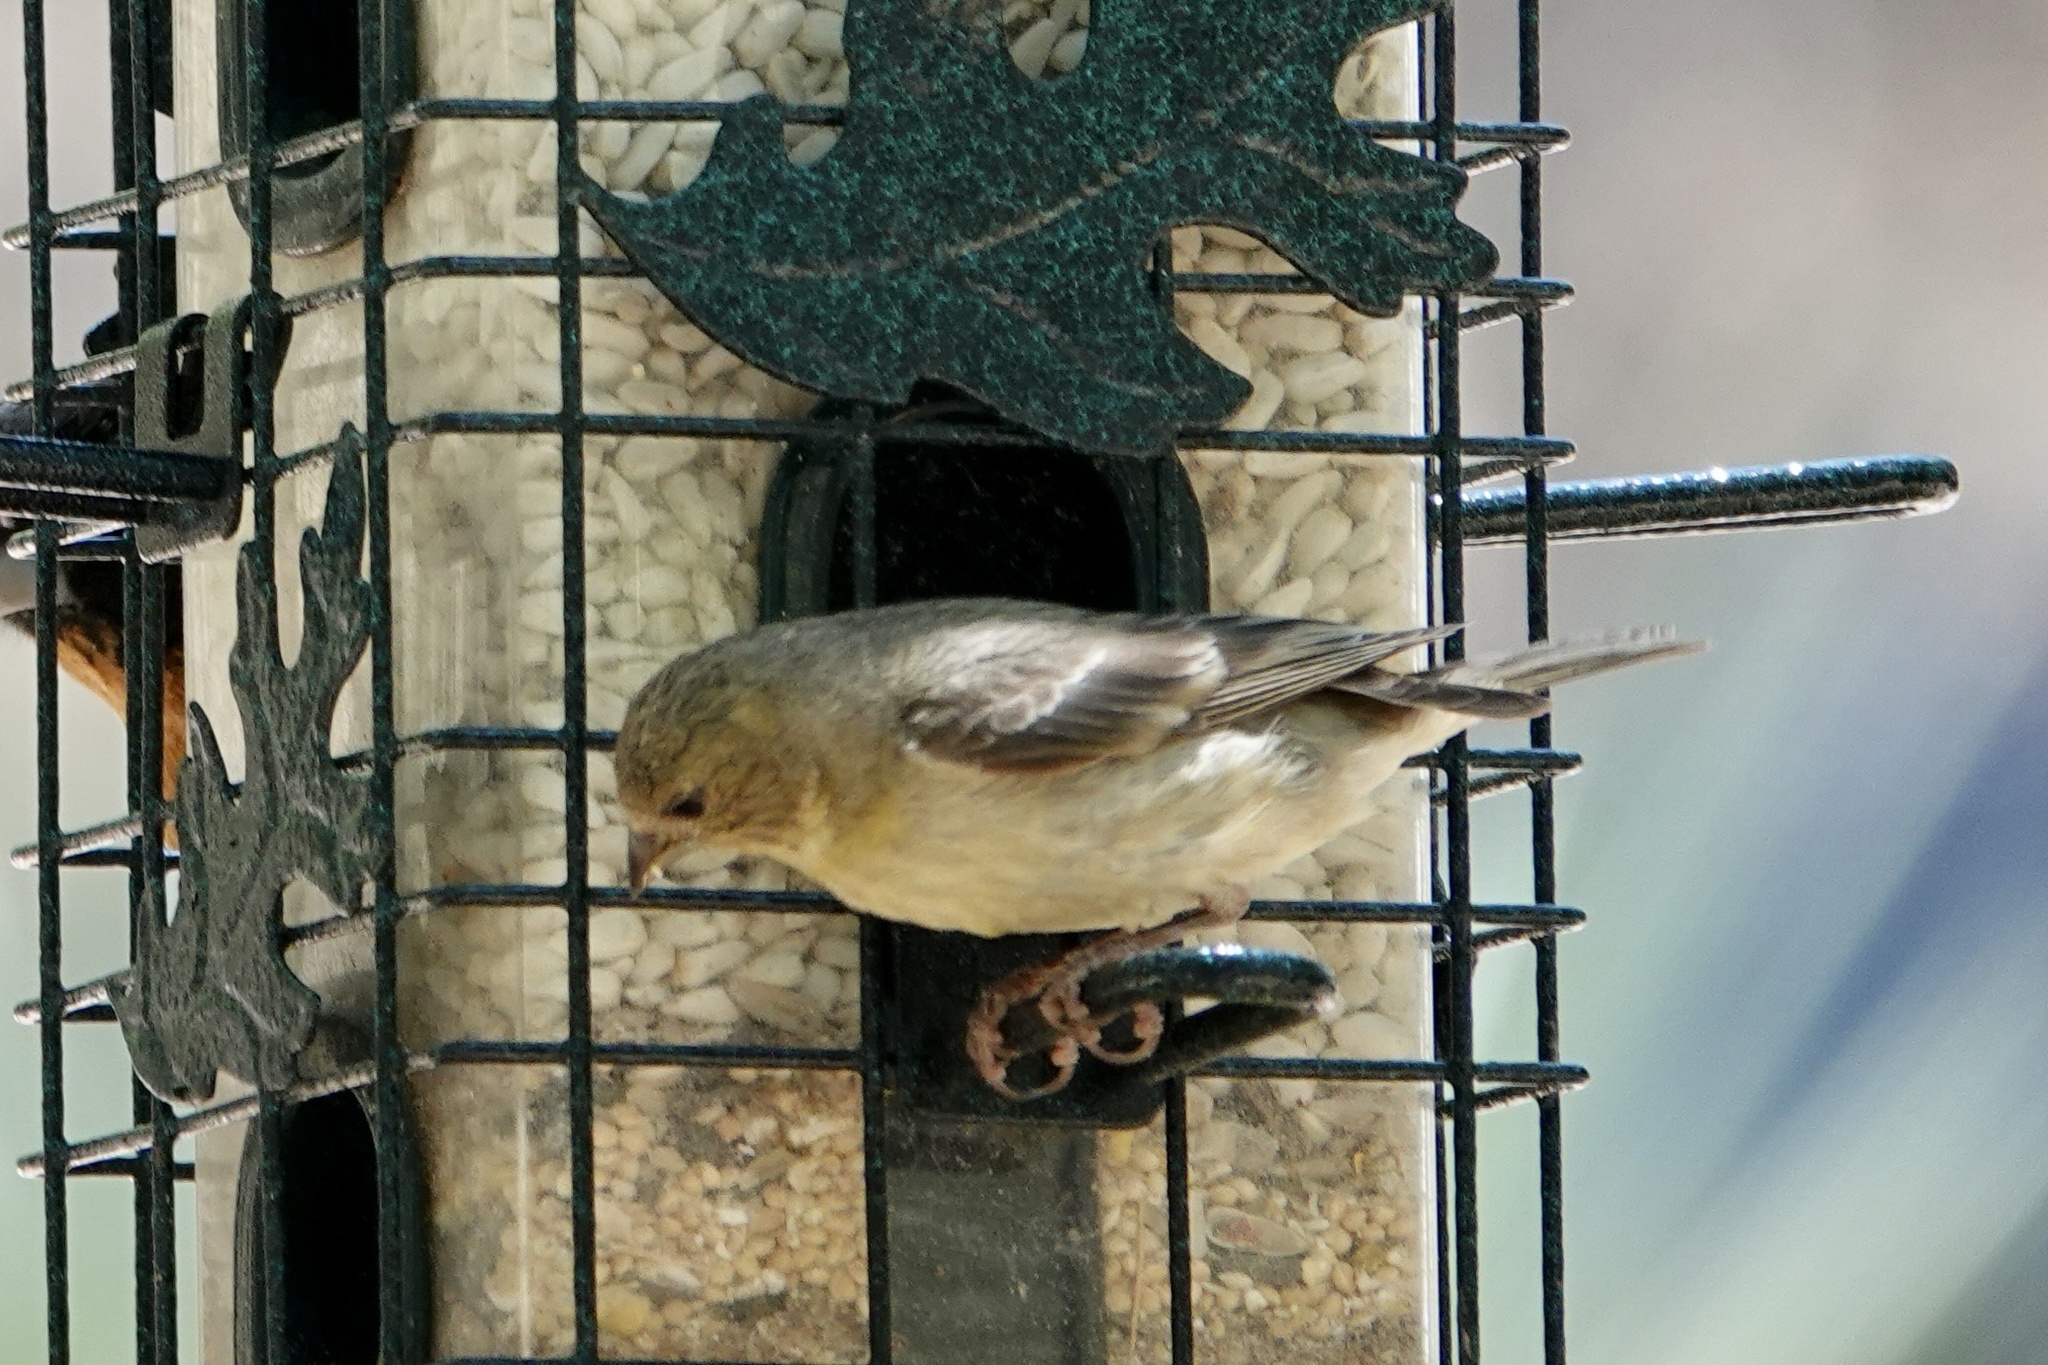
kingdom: Animalia
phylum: Chordata
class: Aves
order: Passeriformes
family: Fringillidae
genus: Spinus
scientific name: Spinus psaltria
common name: Lesser goldfinch
